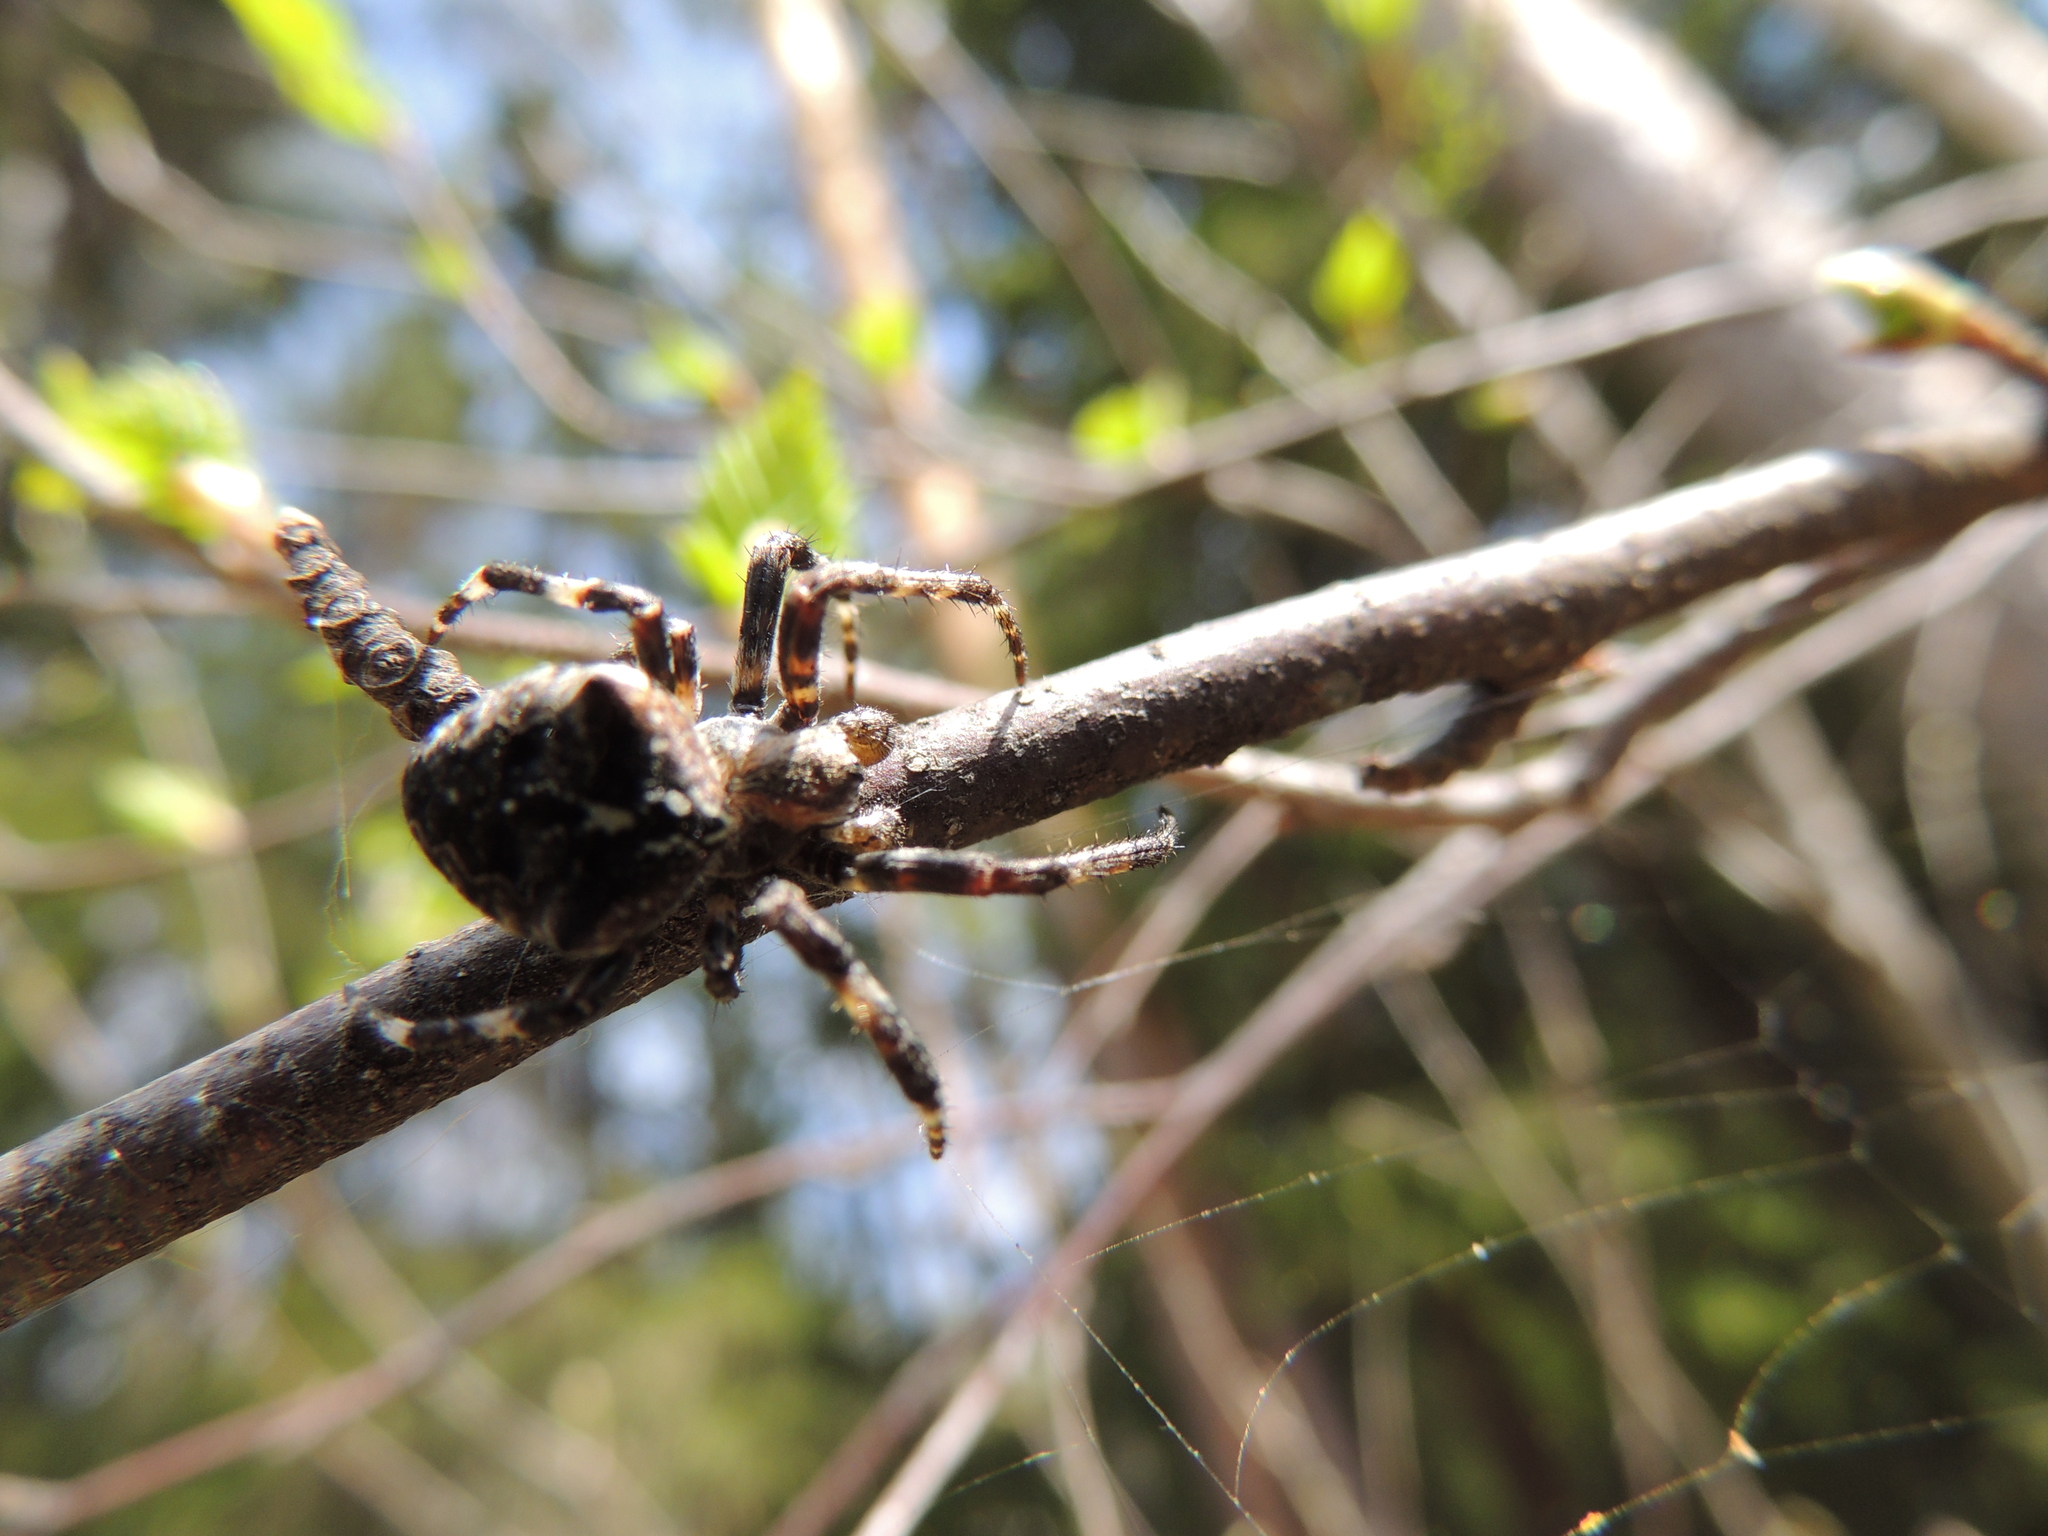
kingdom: Animalia
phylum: Arthropoda
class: Arachnida
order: Araneae
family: Araneidae
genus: Araneus
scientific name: Araneus angulatus
